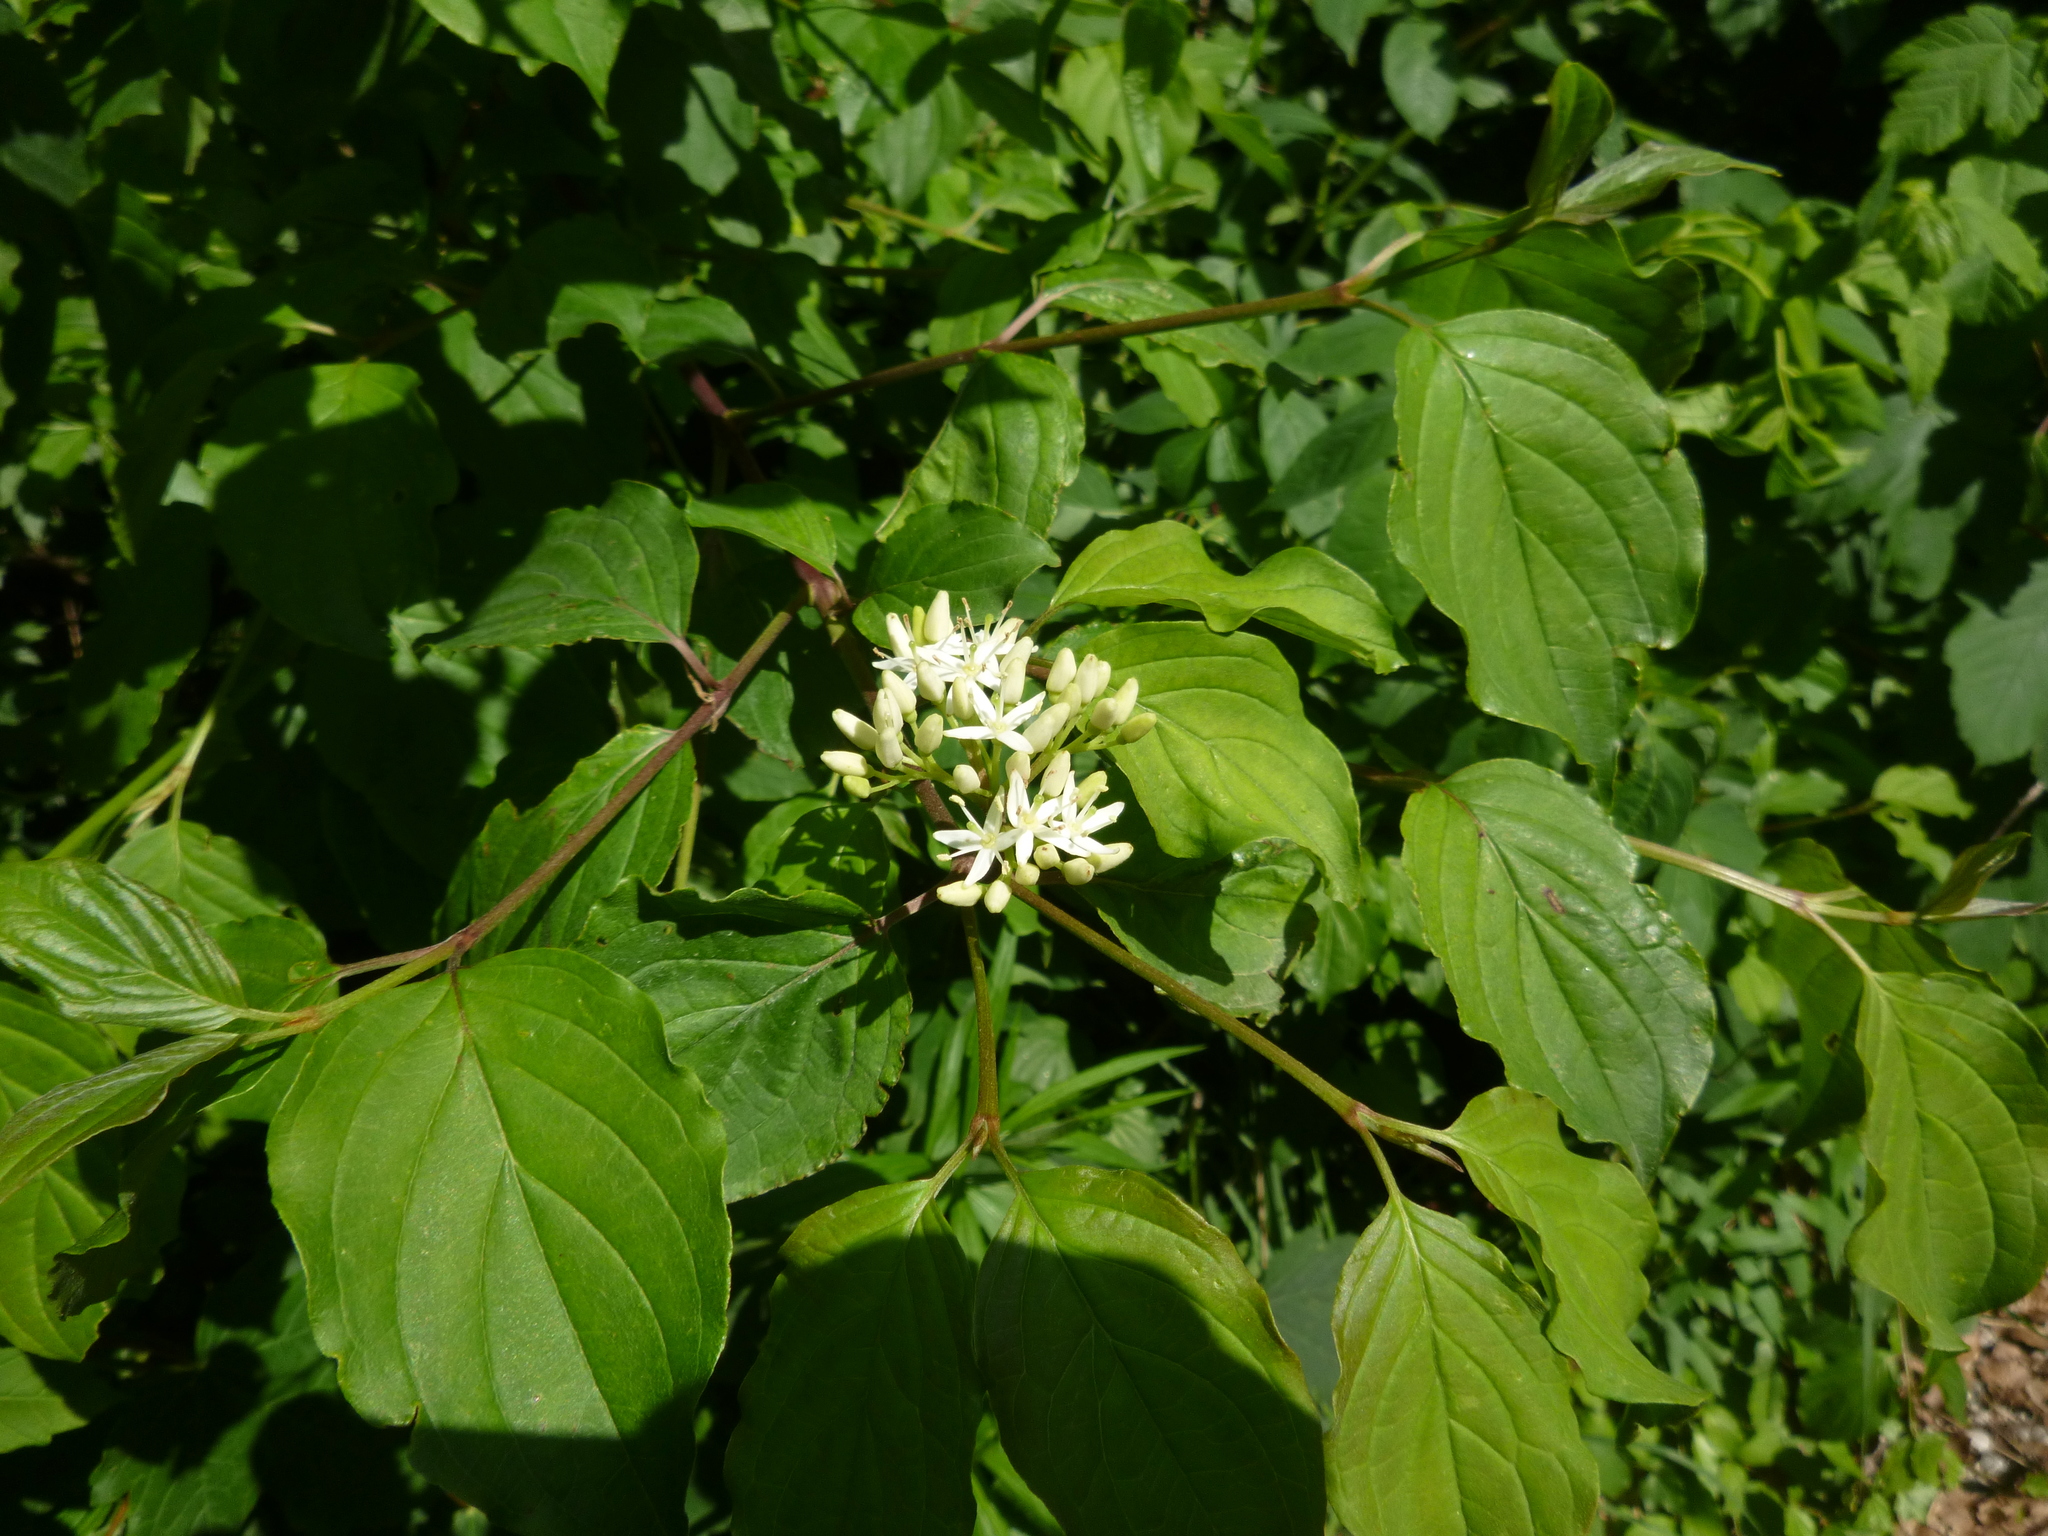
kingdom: Plantae
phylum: Tracheophyta
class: Magnoliopsida
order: Cornales
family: Cornaceae
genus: Cornus
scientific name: Cornus sanguinea
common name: Dogwood
